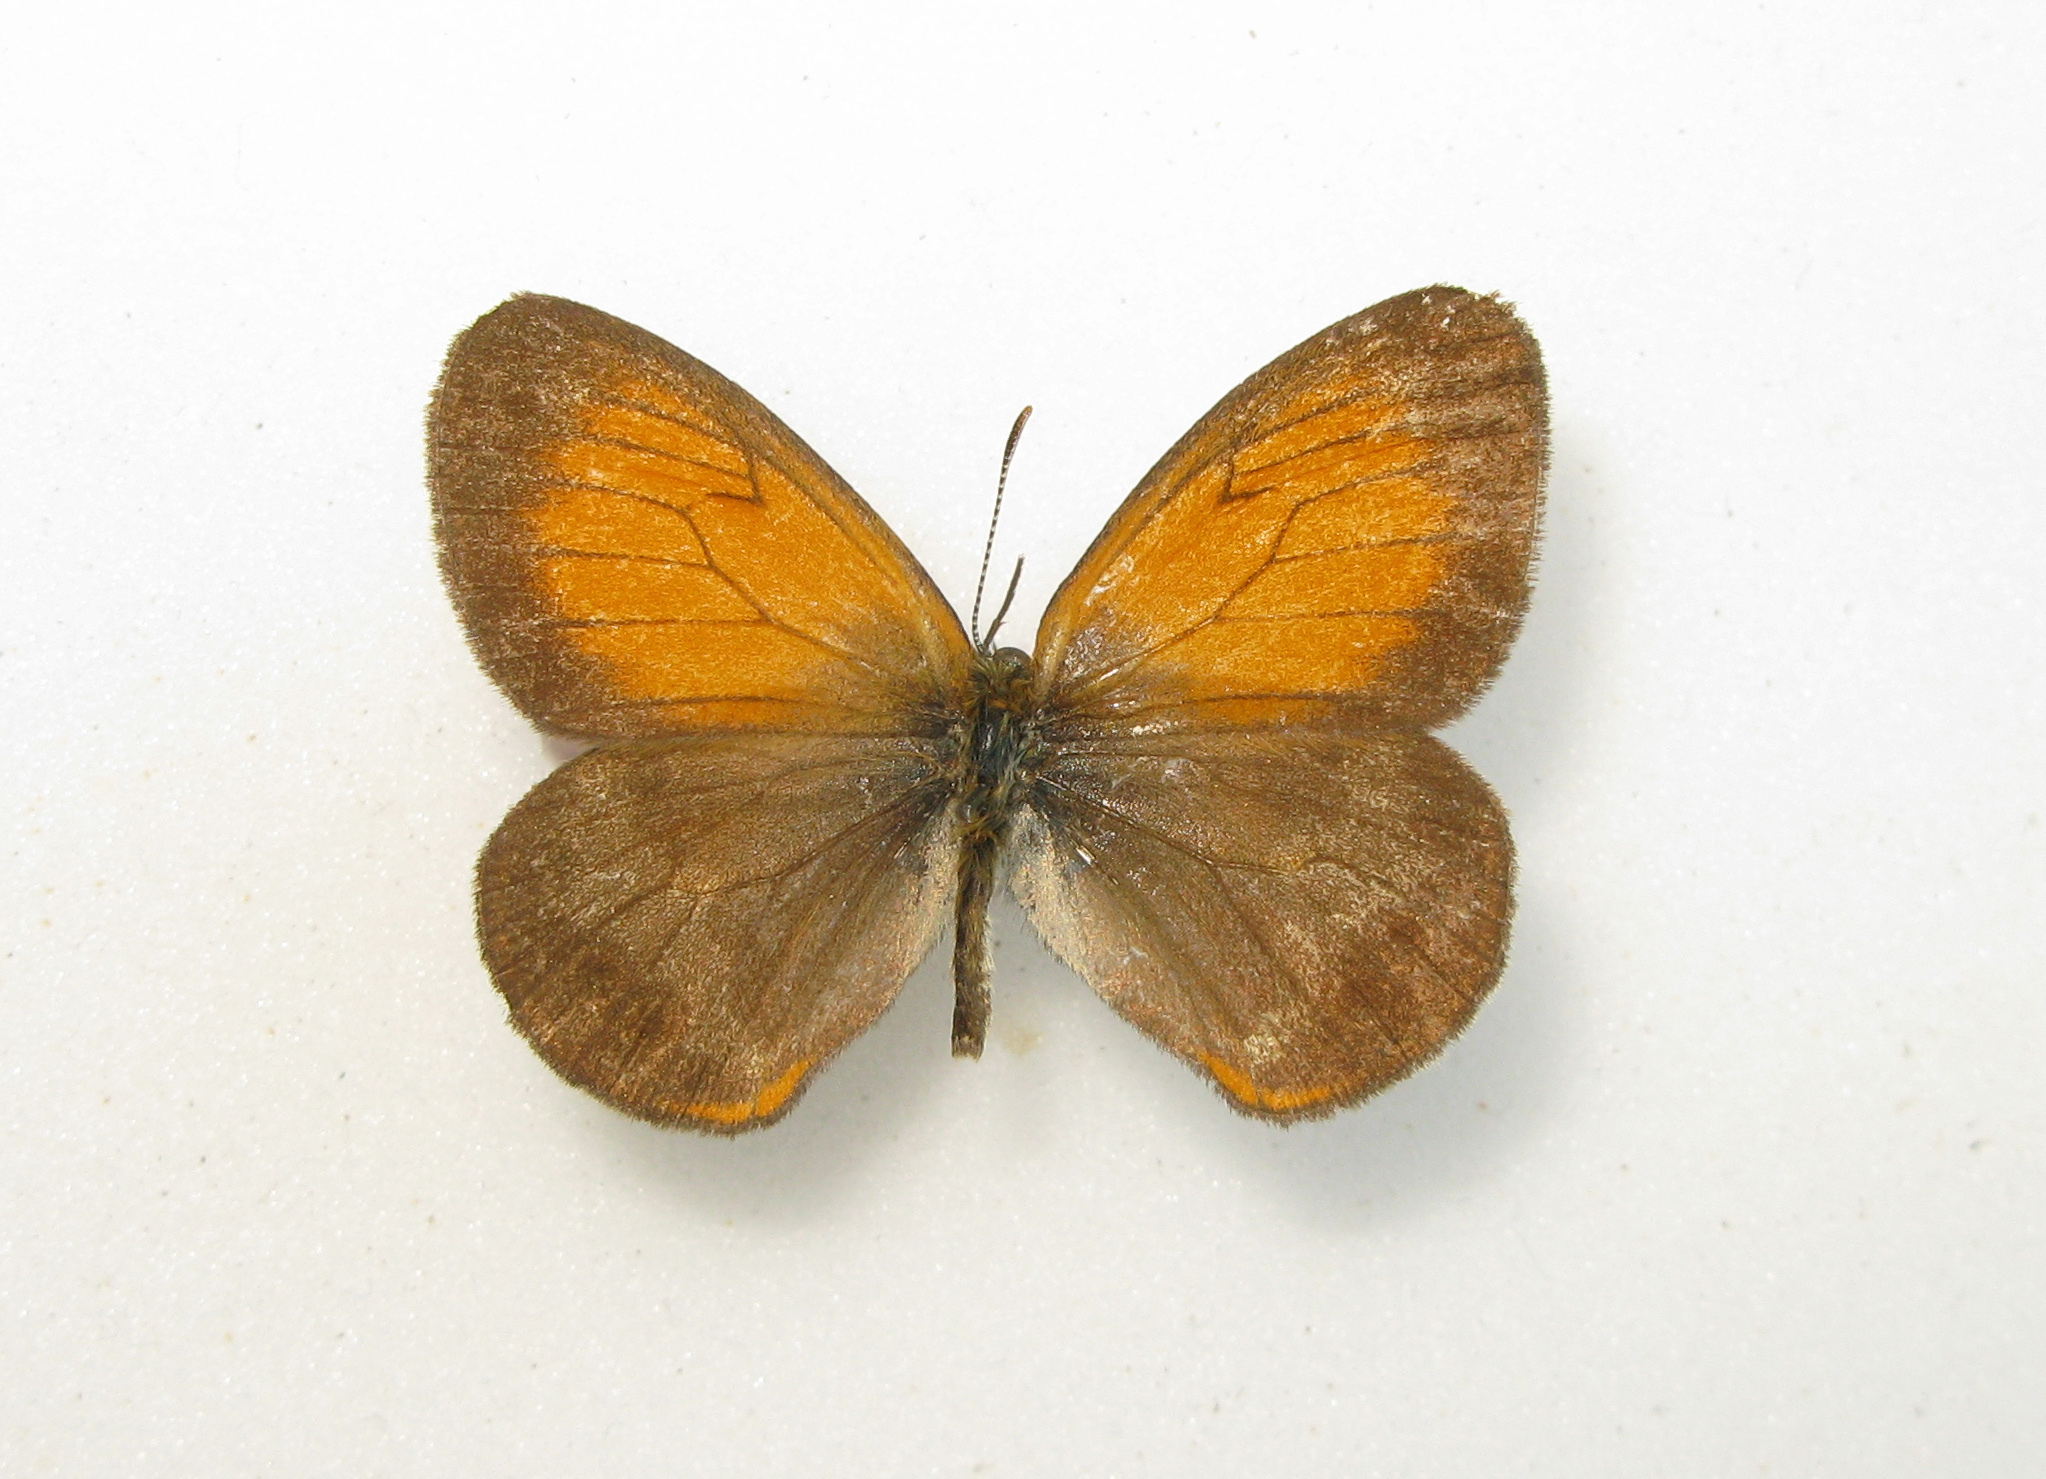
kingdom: Animalia
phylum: Arthropoda
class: Insecta
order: Lepidoptera
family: Nymphalidae
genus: Coenonympha
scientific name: Coenonympha arcania
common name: Pearly heath
